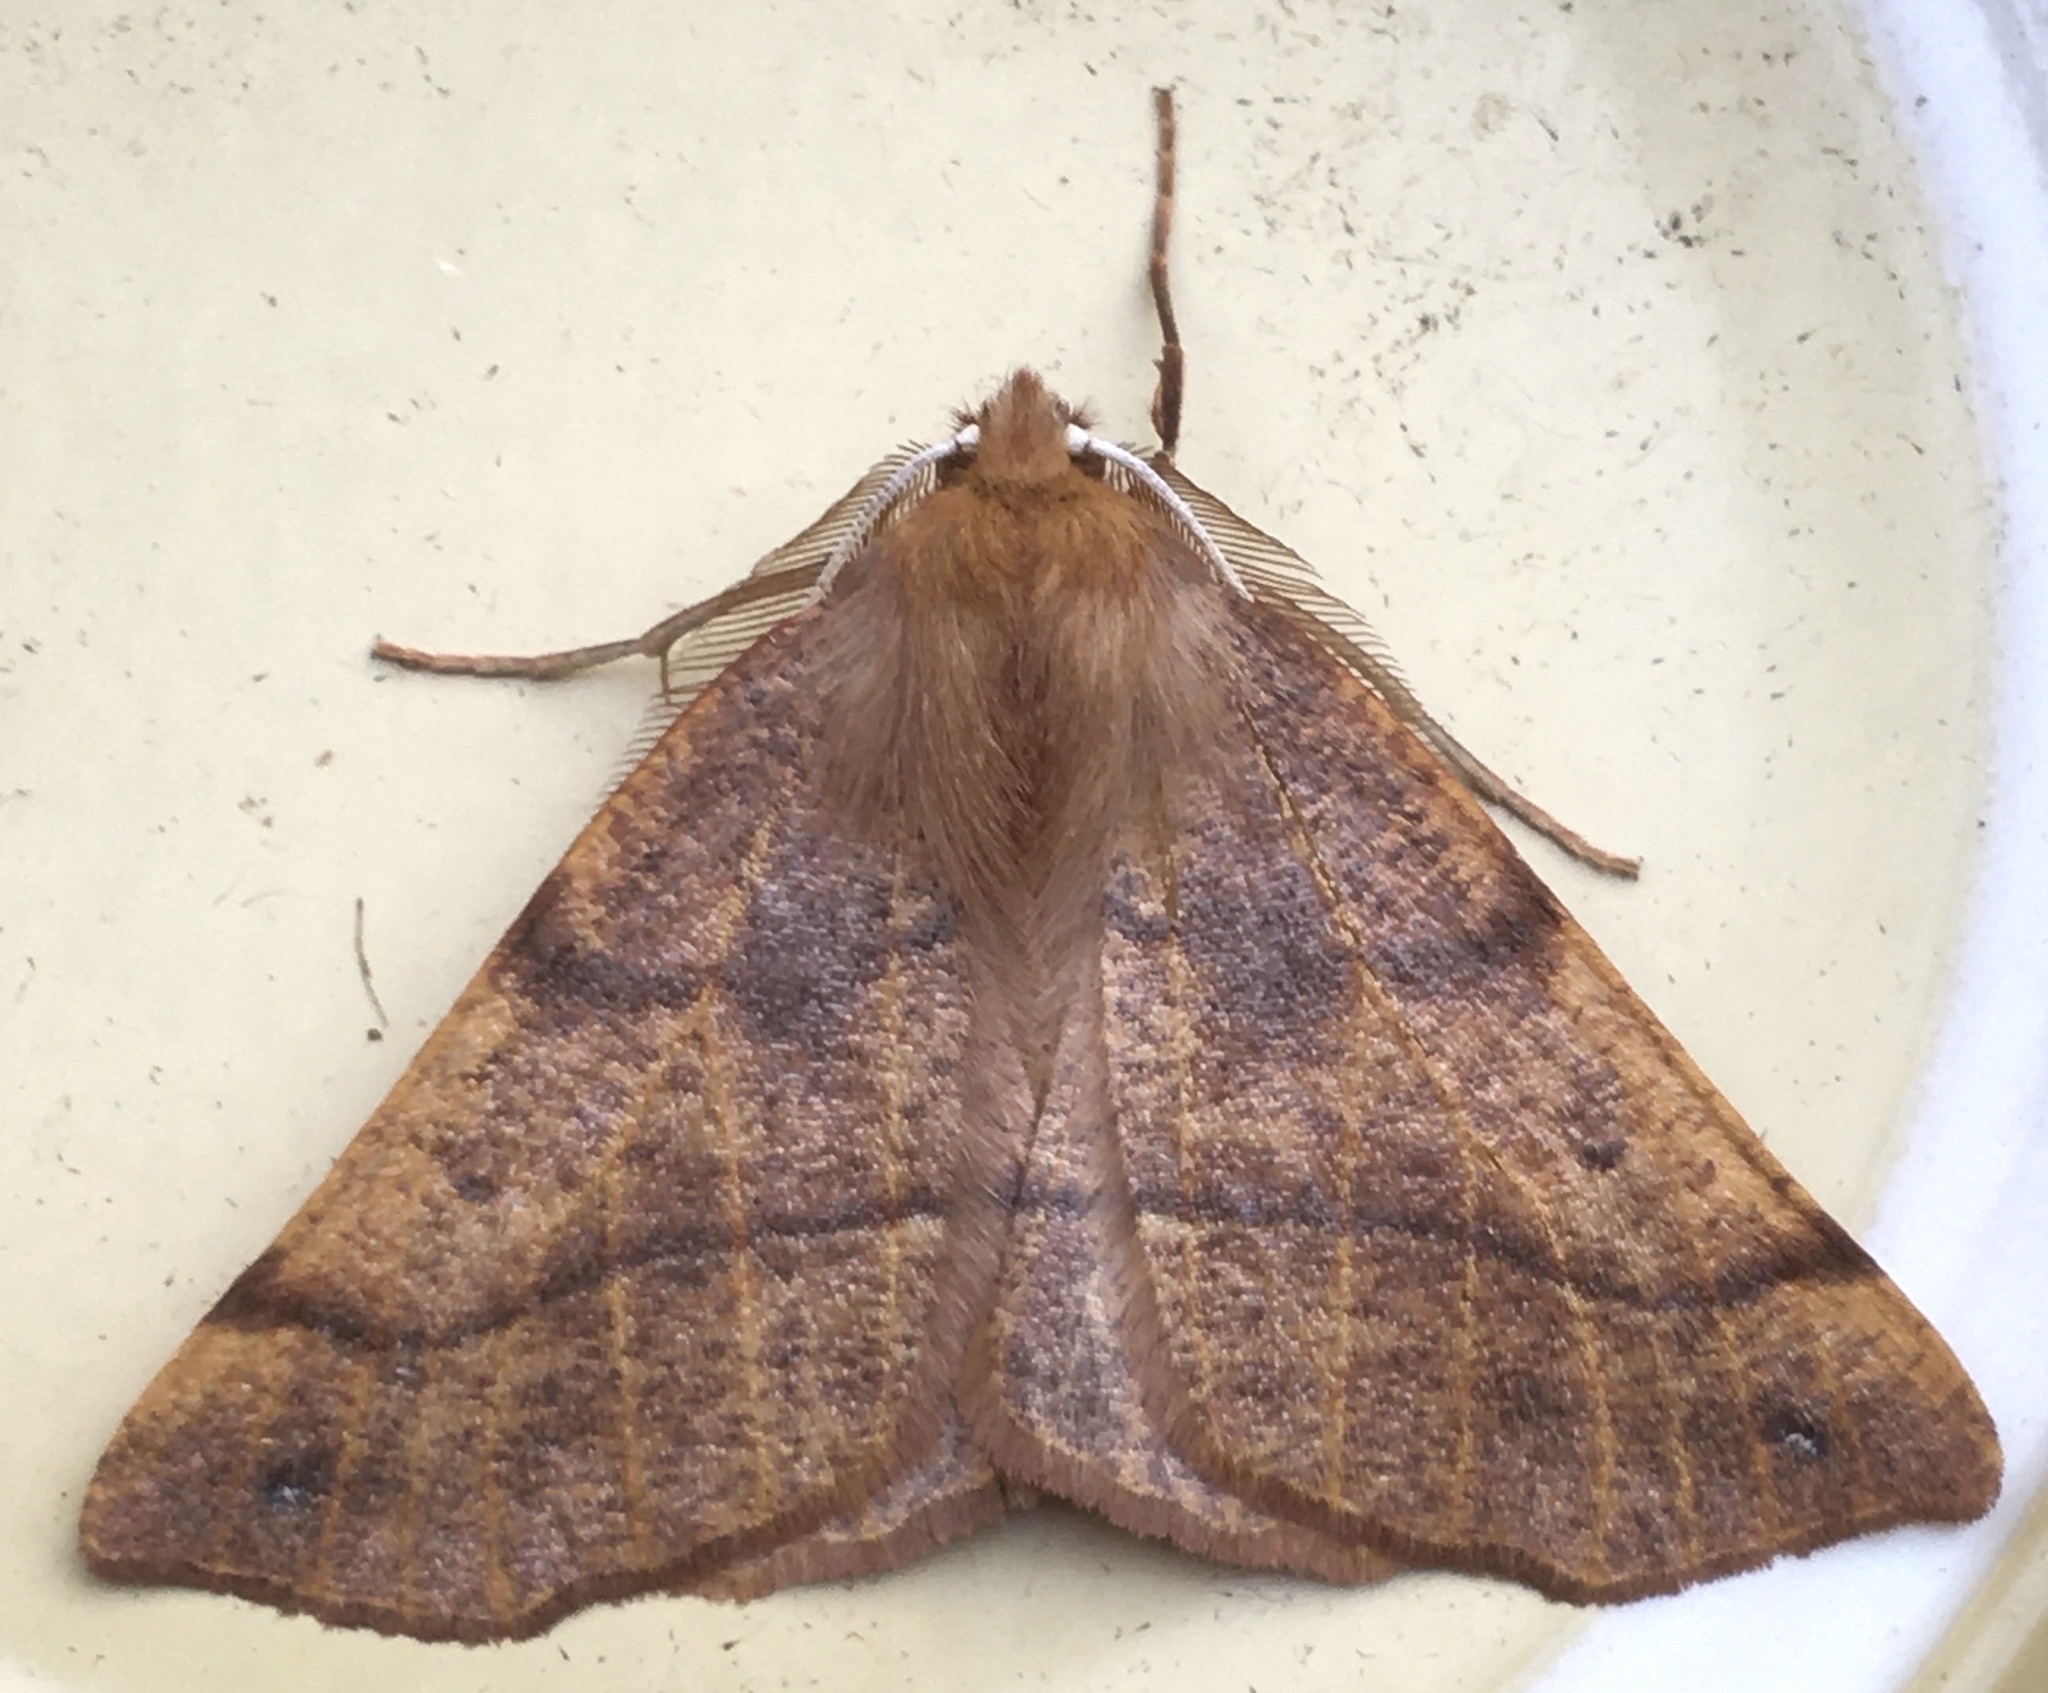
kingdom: Animalia
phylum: Arthropoda
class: Insecta
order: Lepidoptera
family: Geometridae
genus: Colotois
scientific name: Colotois pennaria
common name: Feathered thorn
